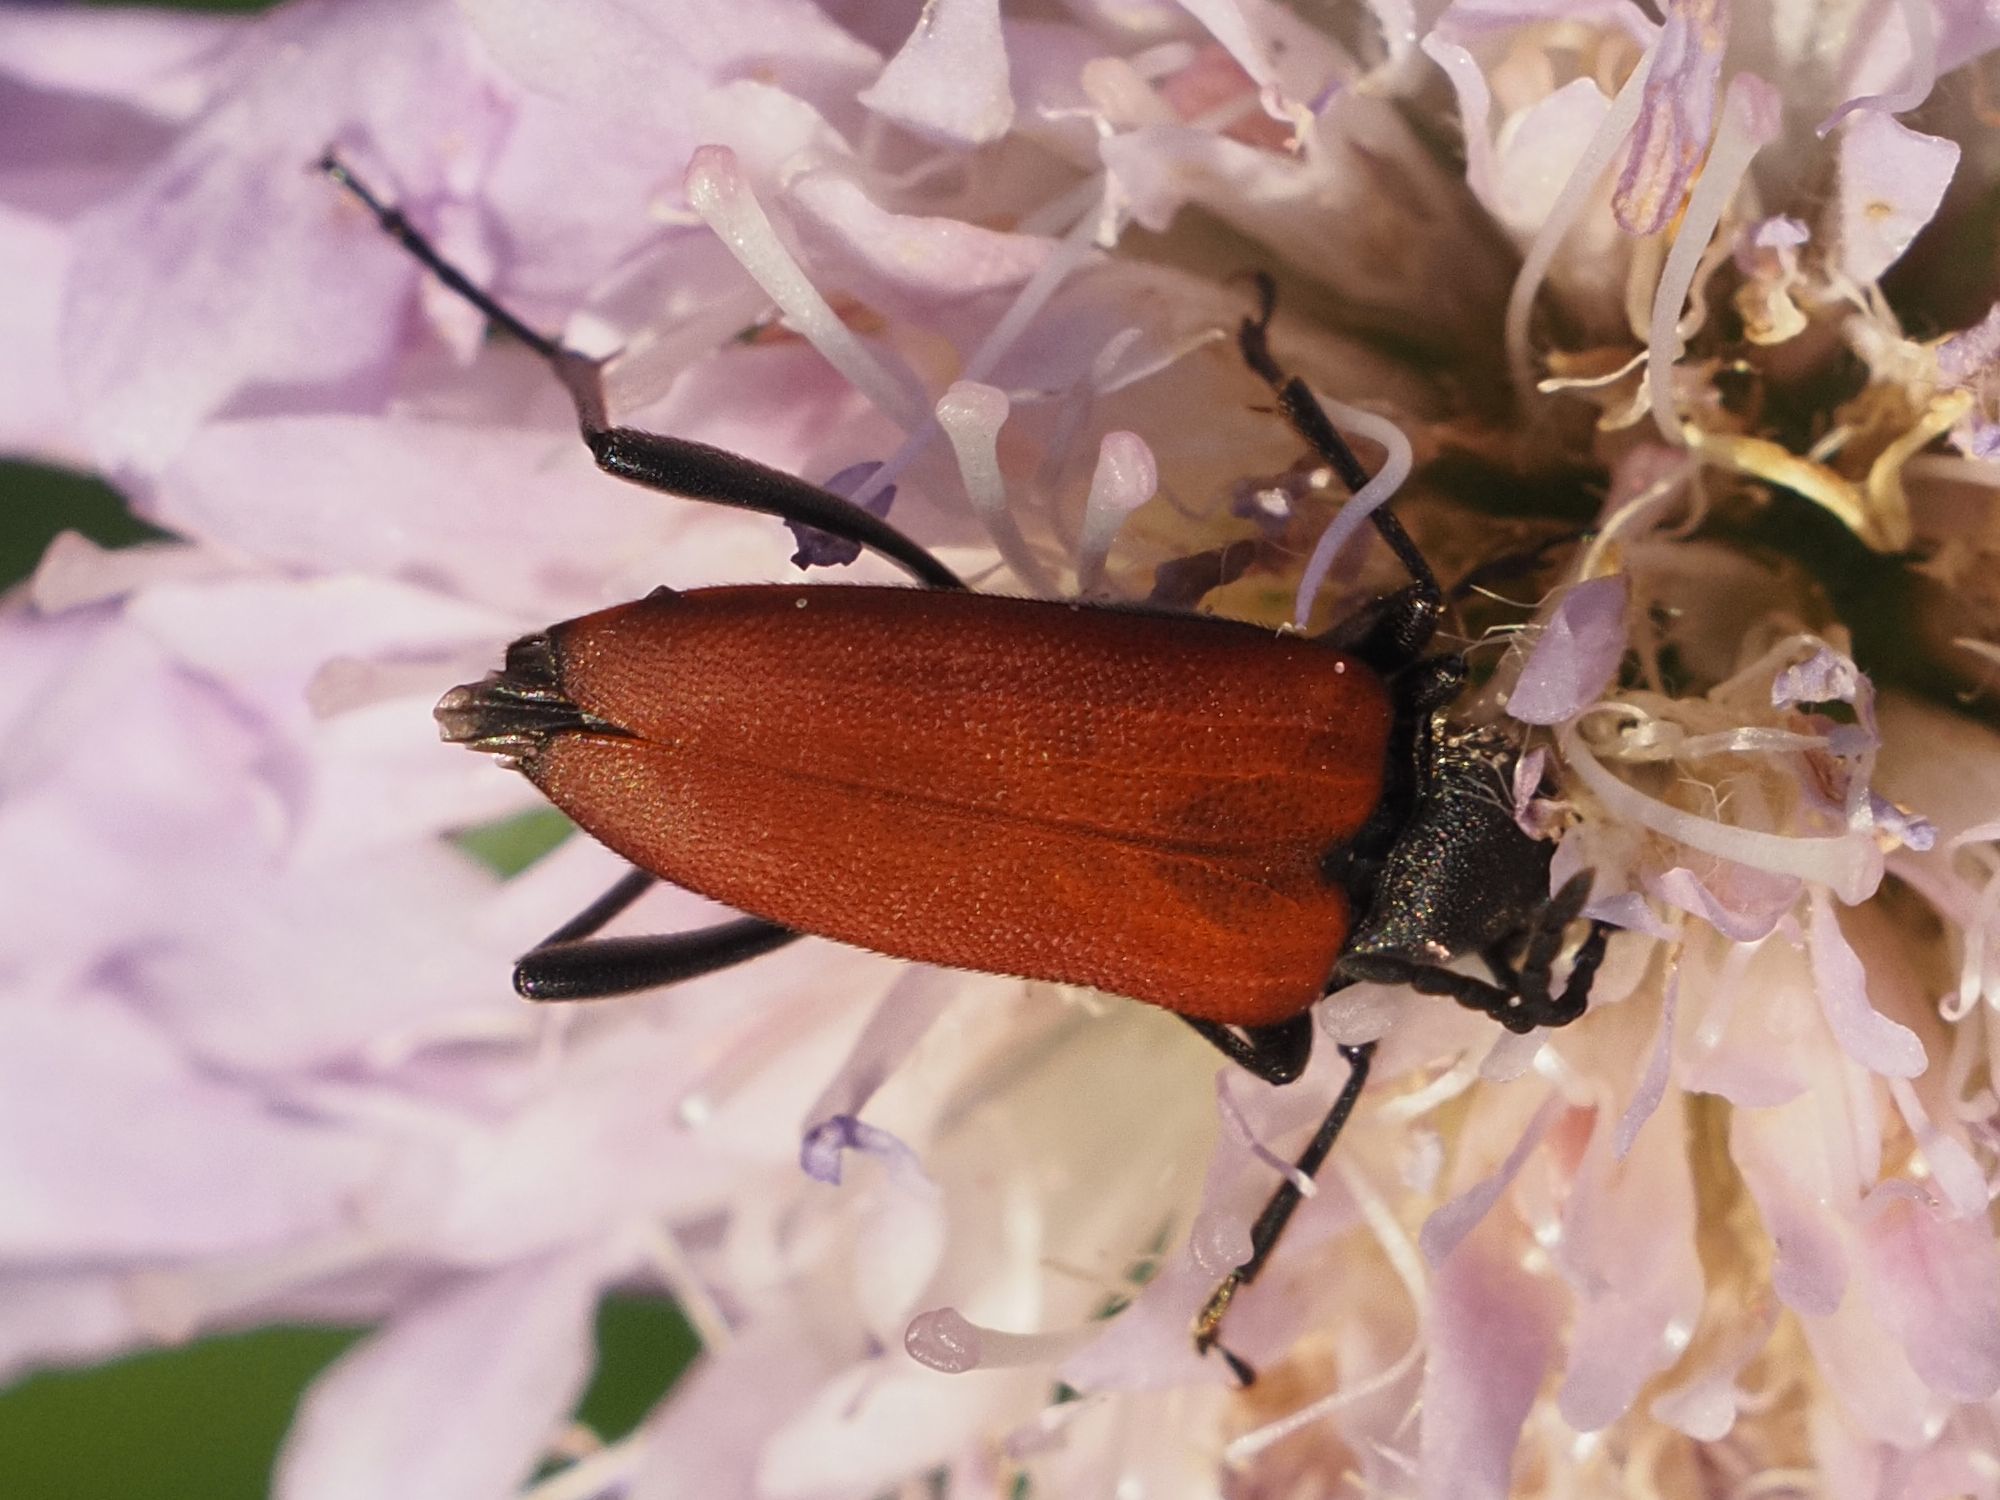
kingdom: Animalia
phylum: Arthropoda
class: Insecta
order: Coleoptera
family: Cerambycidae
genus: Anastrangalia
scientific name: Anastrangalia sanguinolenta
